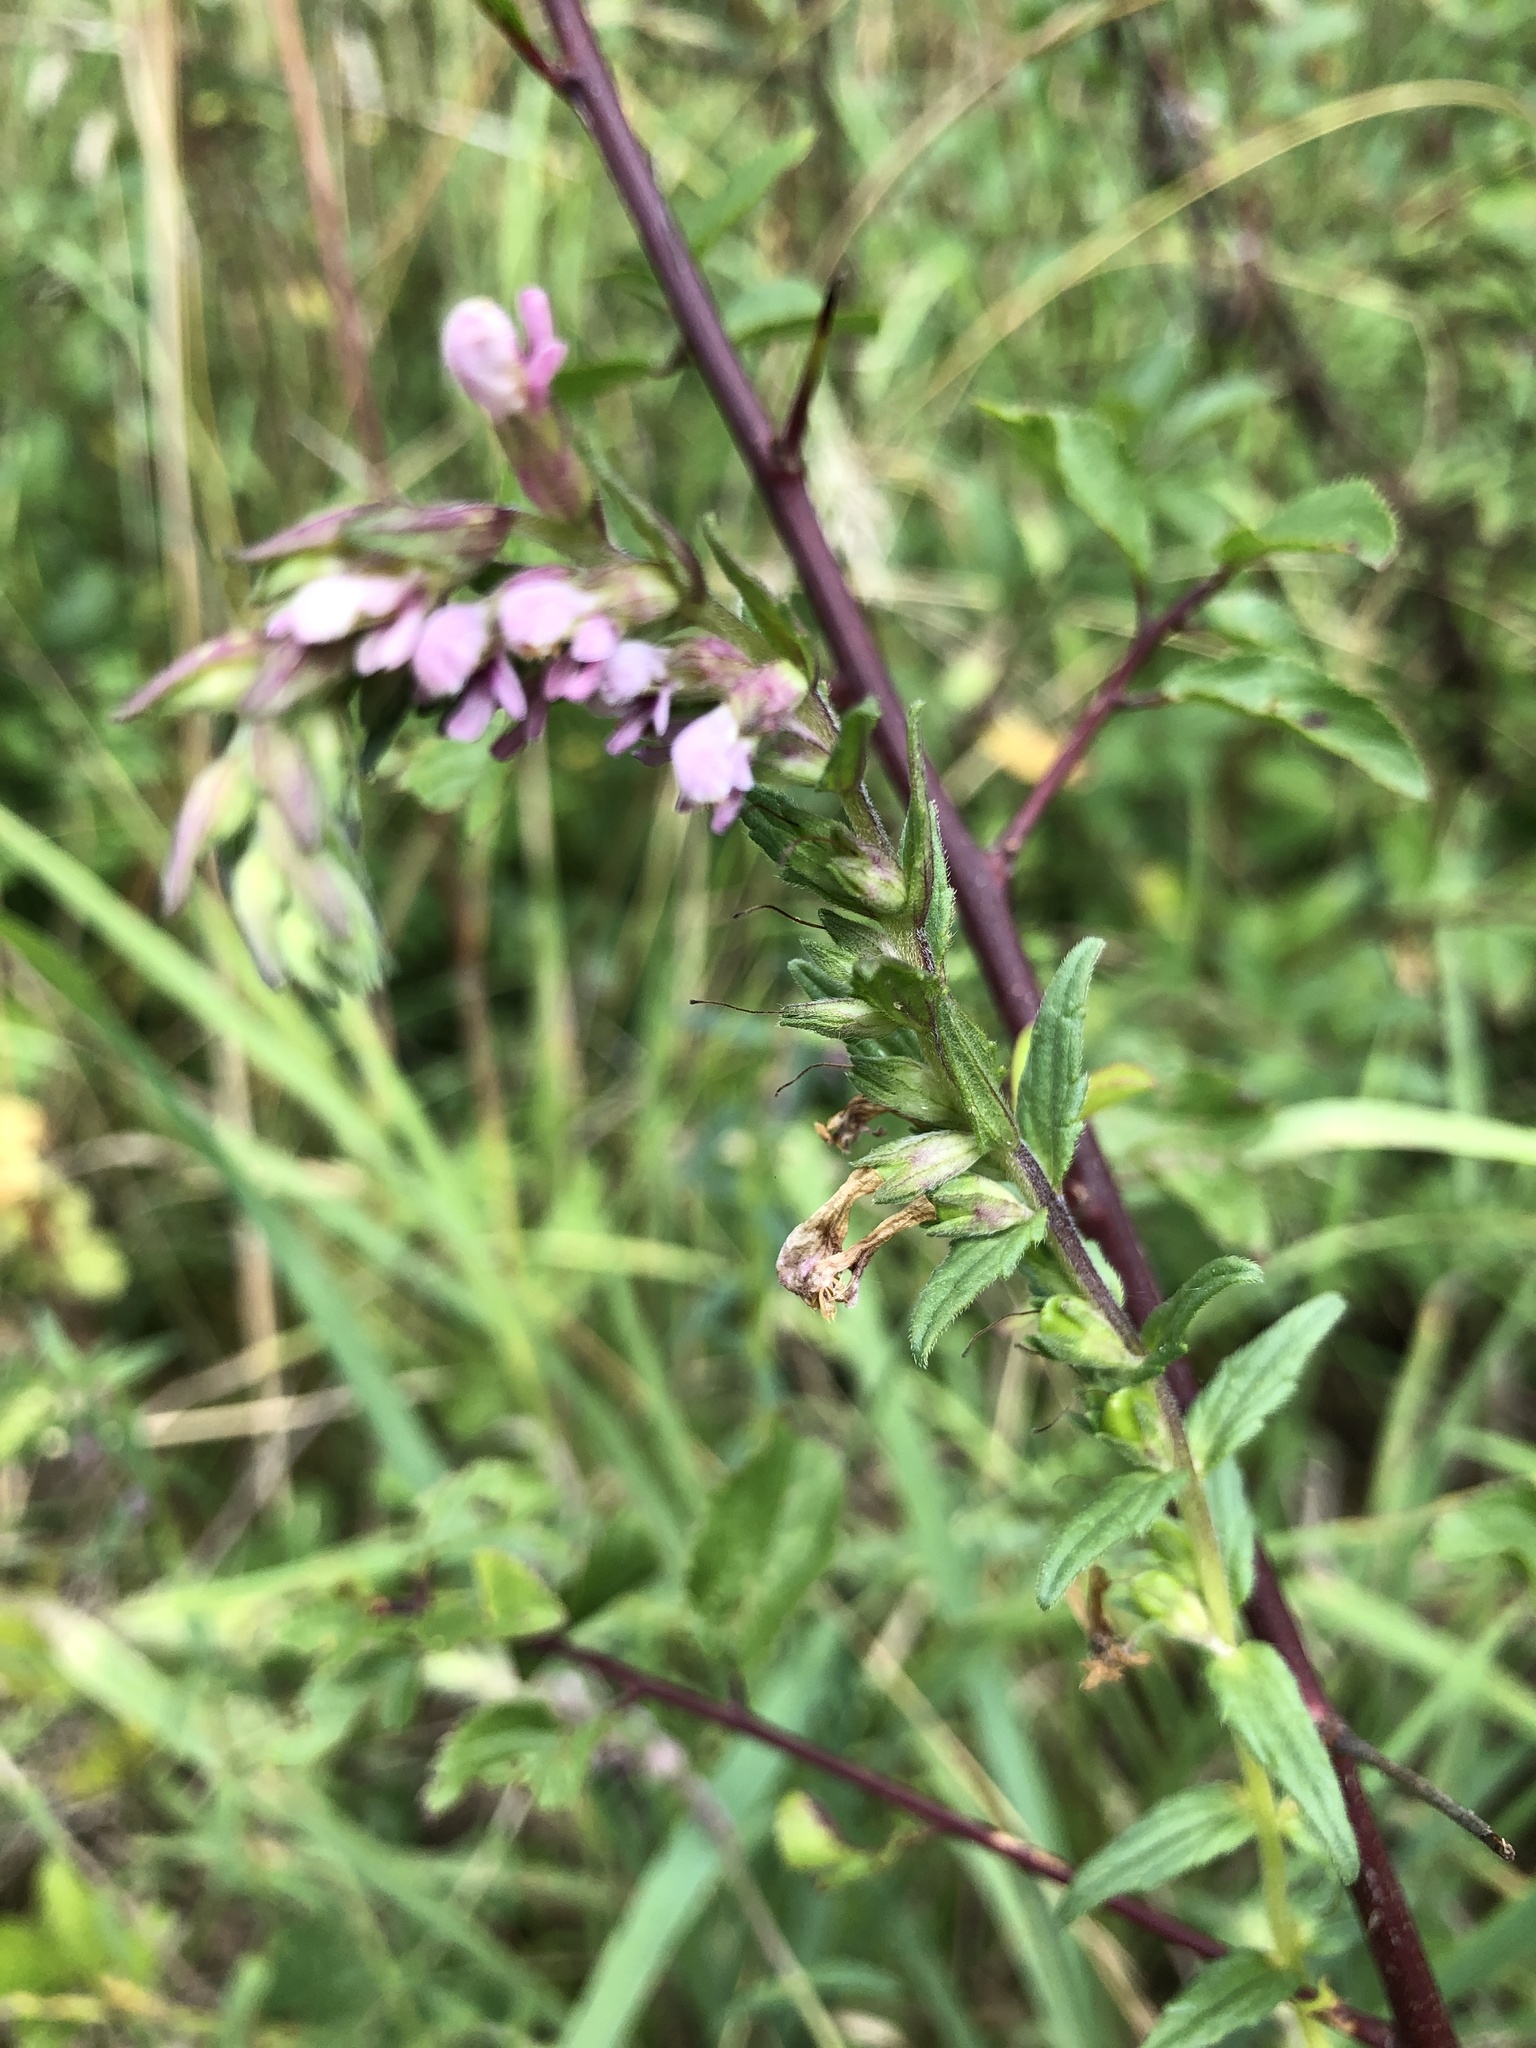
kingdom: Plantae
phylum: Tracheophyta
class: Magnoliopsida
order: Lamiales
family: Orobanchaceae
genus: Odontites
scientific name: Odontites vulgaris
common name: Broomrape
